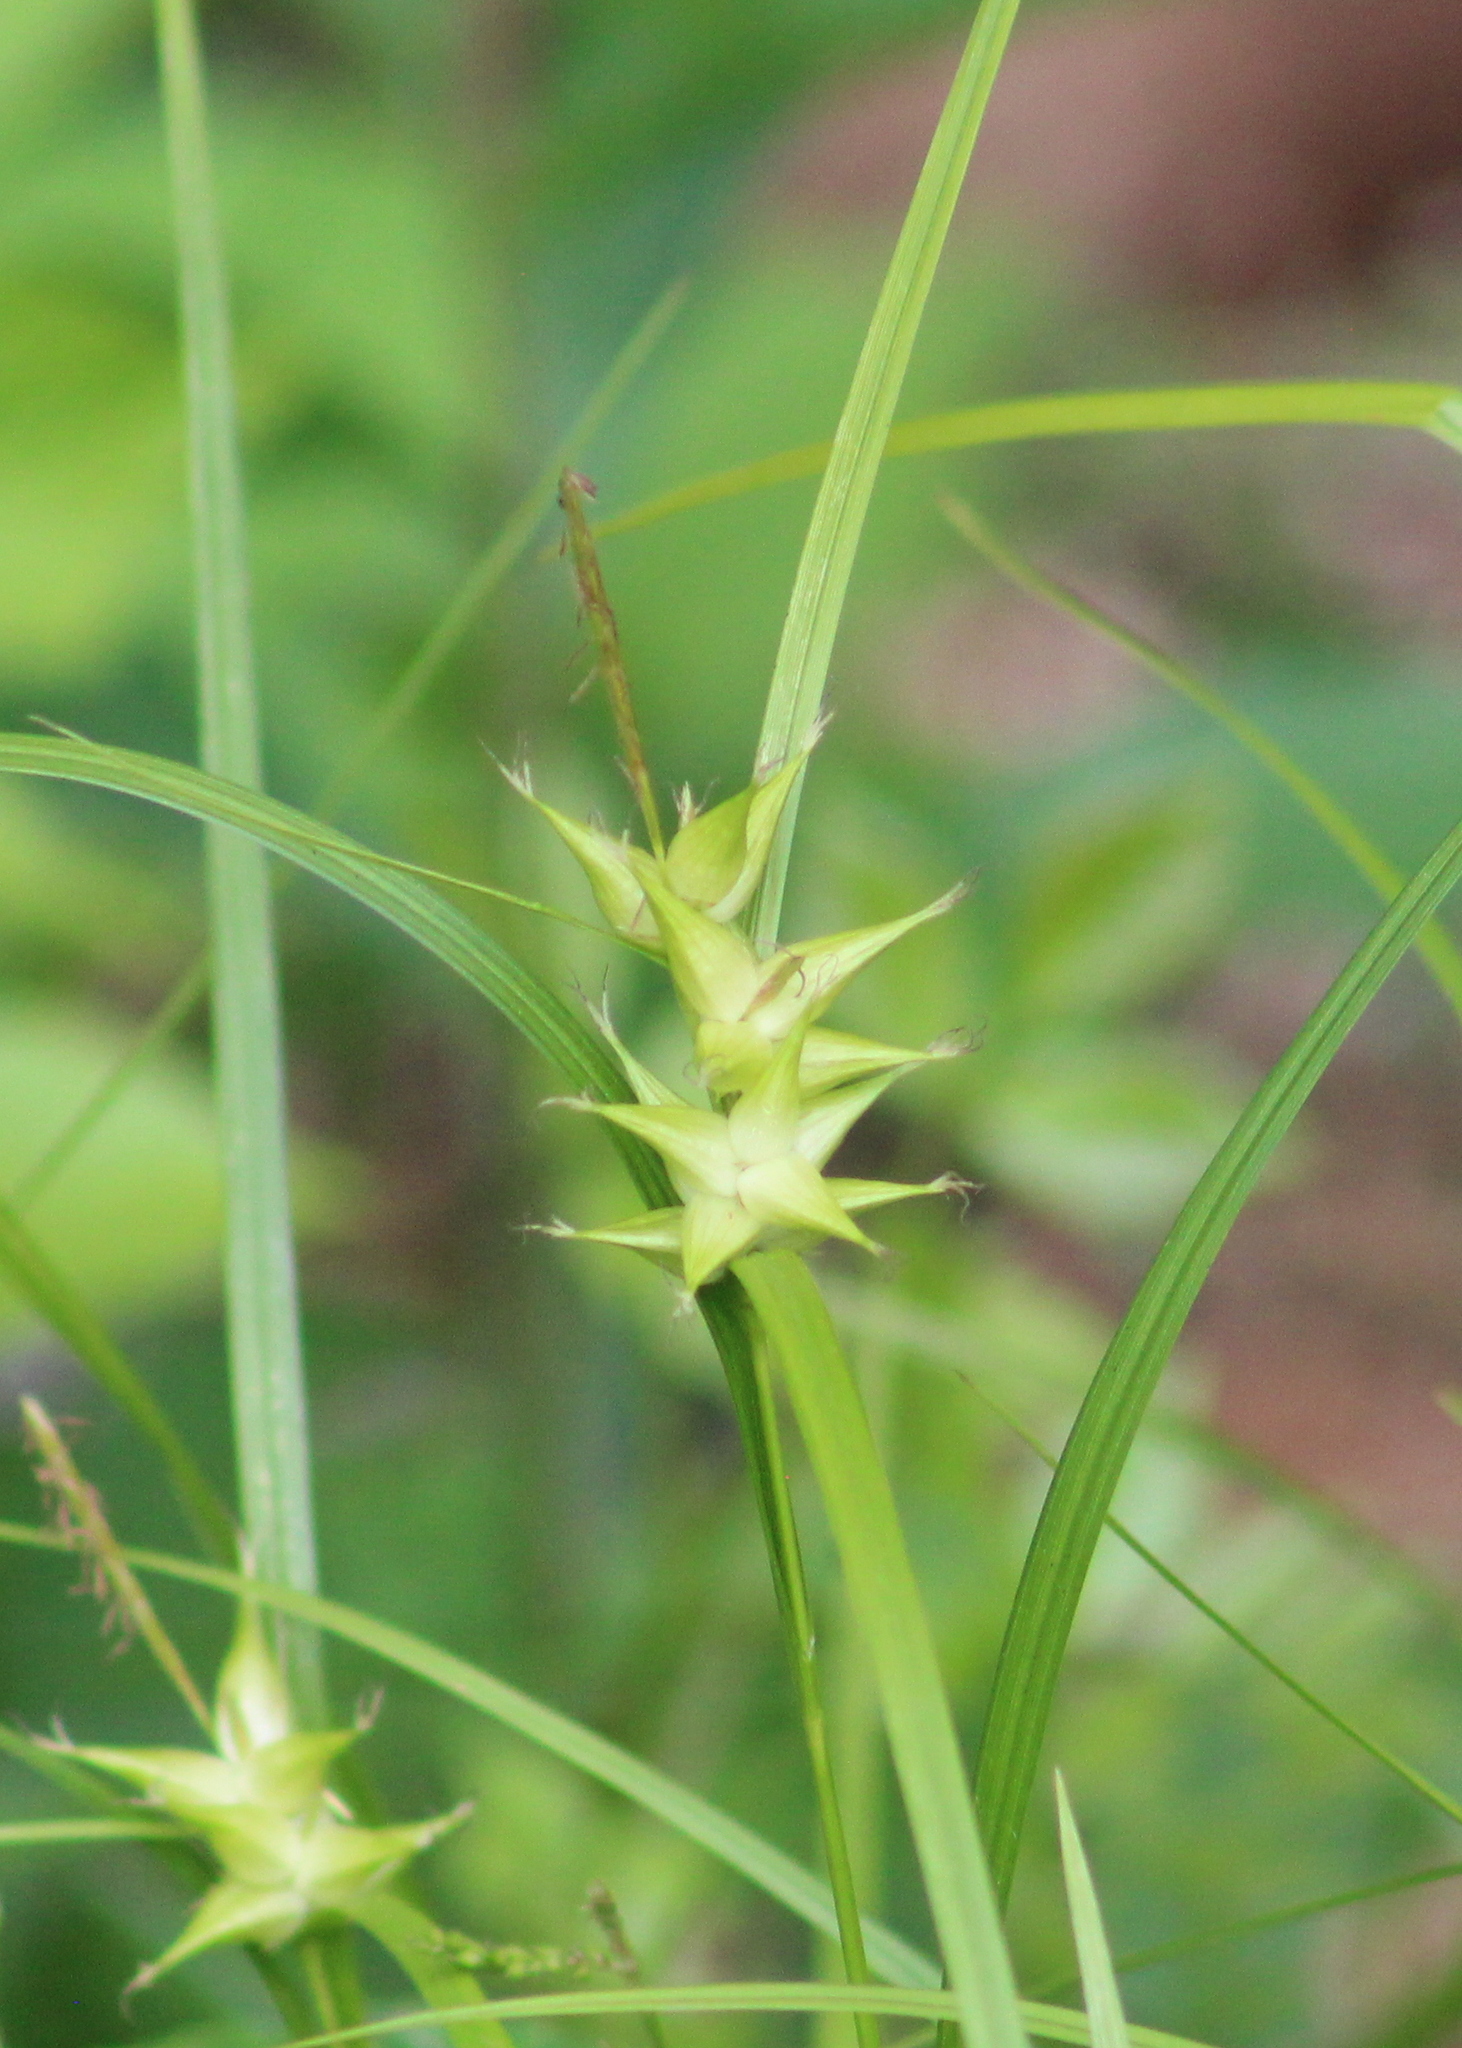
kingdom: Plantae
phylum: Tracheophyta
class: Liliopsida
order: Poales
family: Cyperaceae
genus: Carex
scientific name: Carex intumescens
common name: Greater bladder sedge
